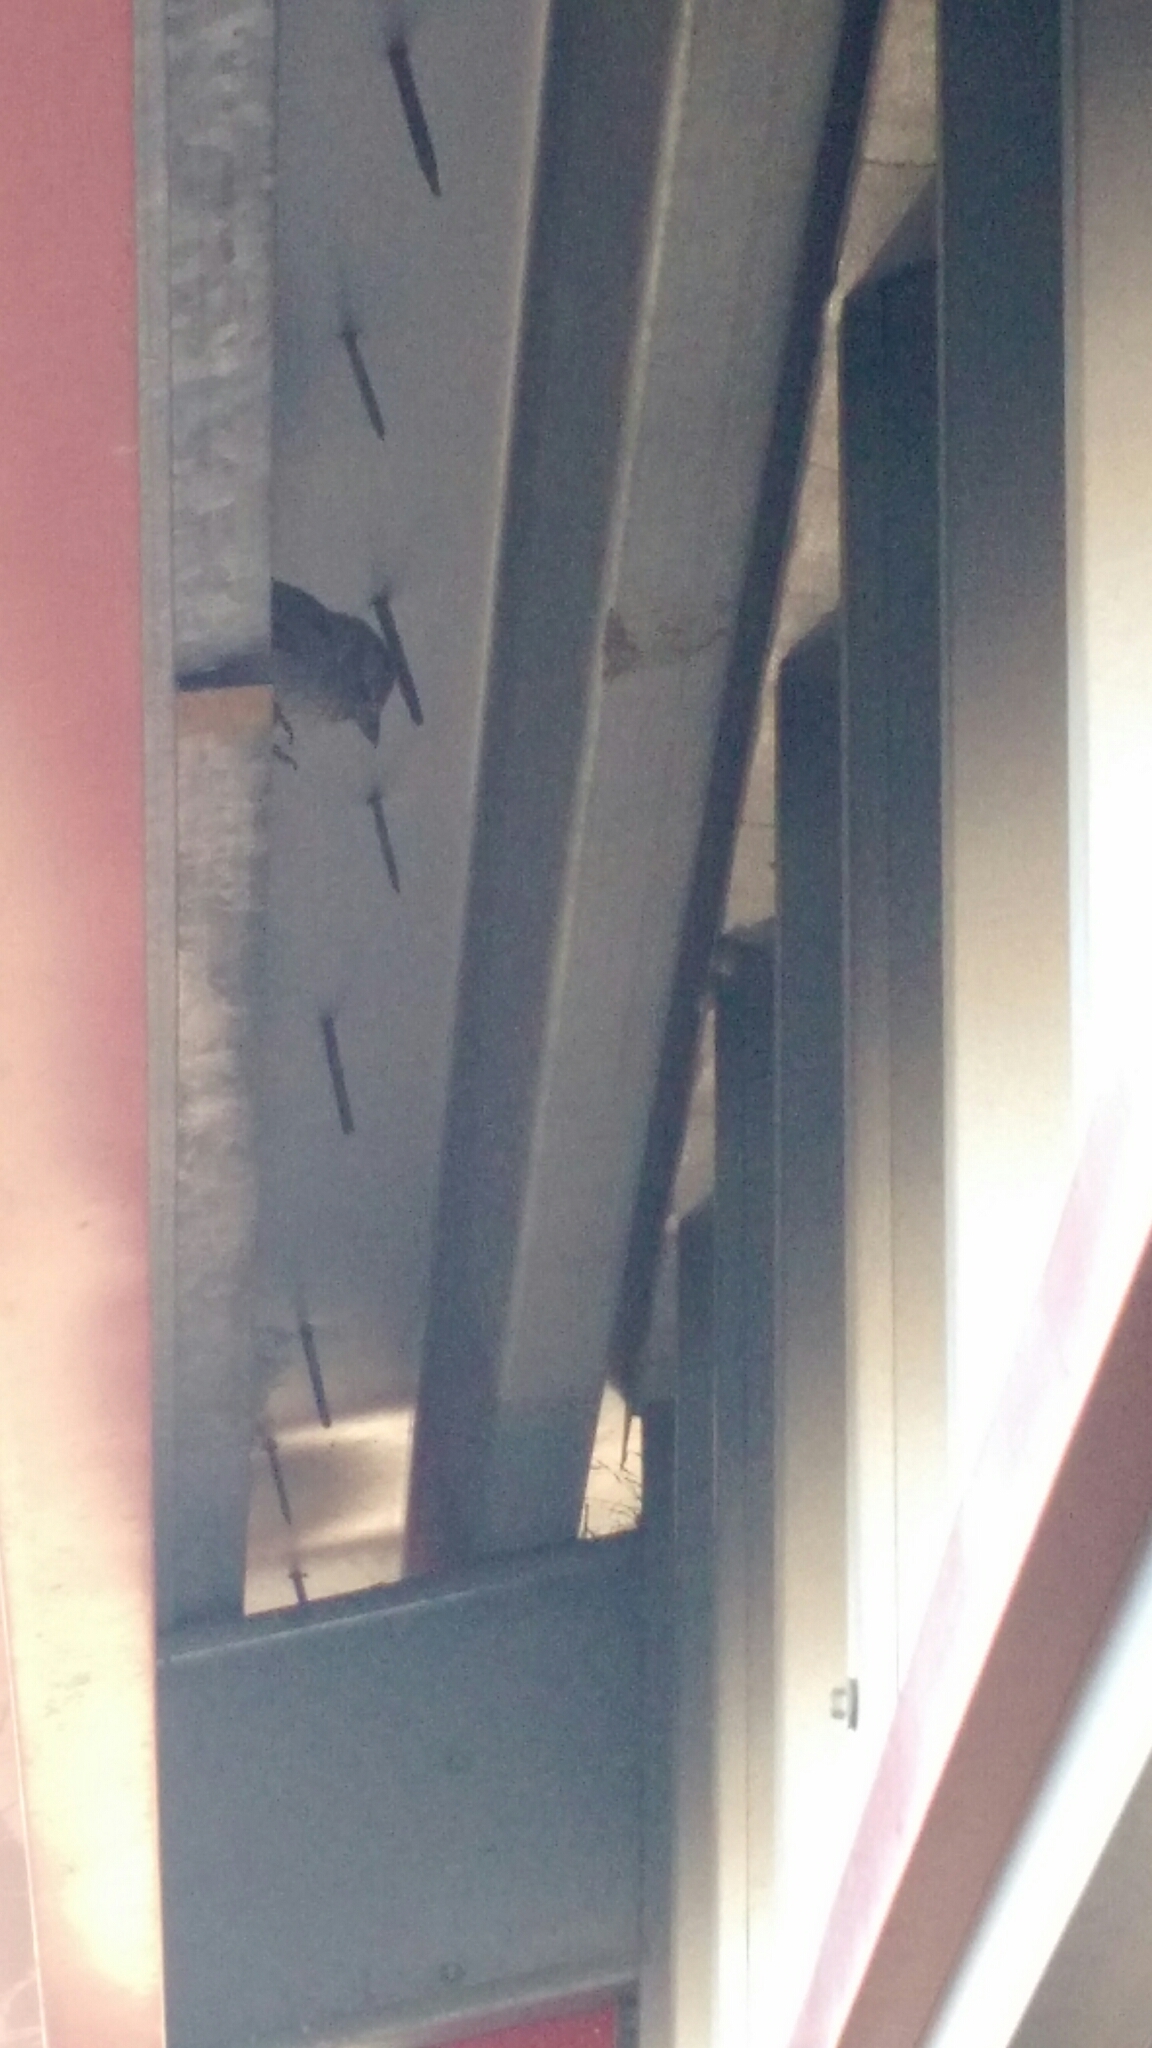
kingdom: Animalia
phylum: Chordata
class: Aves
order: Passeriformes
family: Passeridae
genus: Passer
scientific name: Passer domesticus
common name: House sparrow
